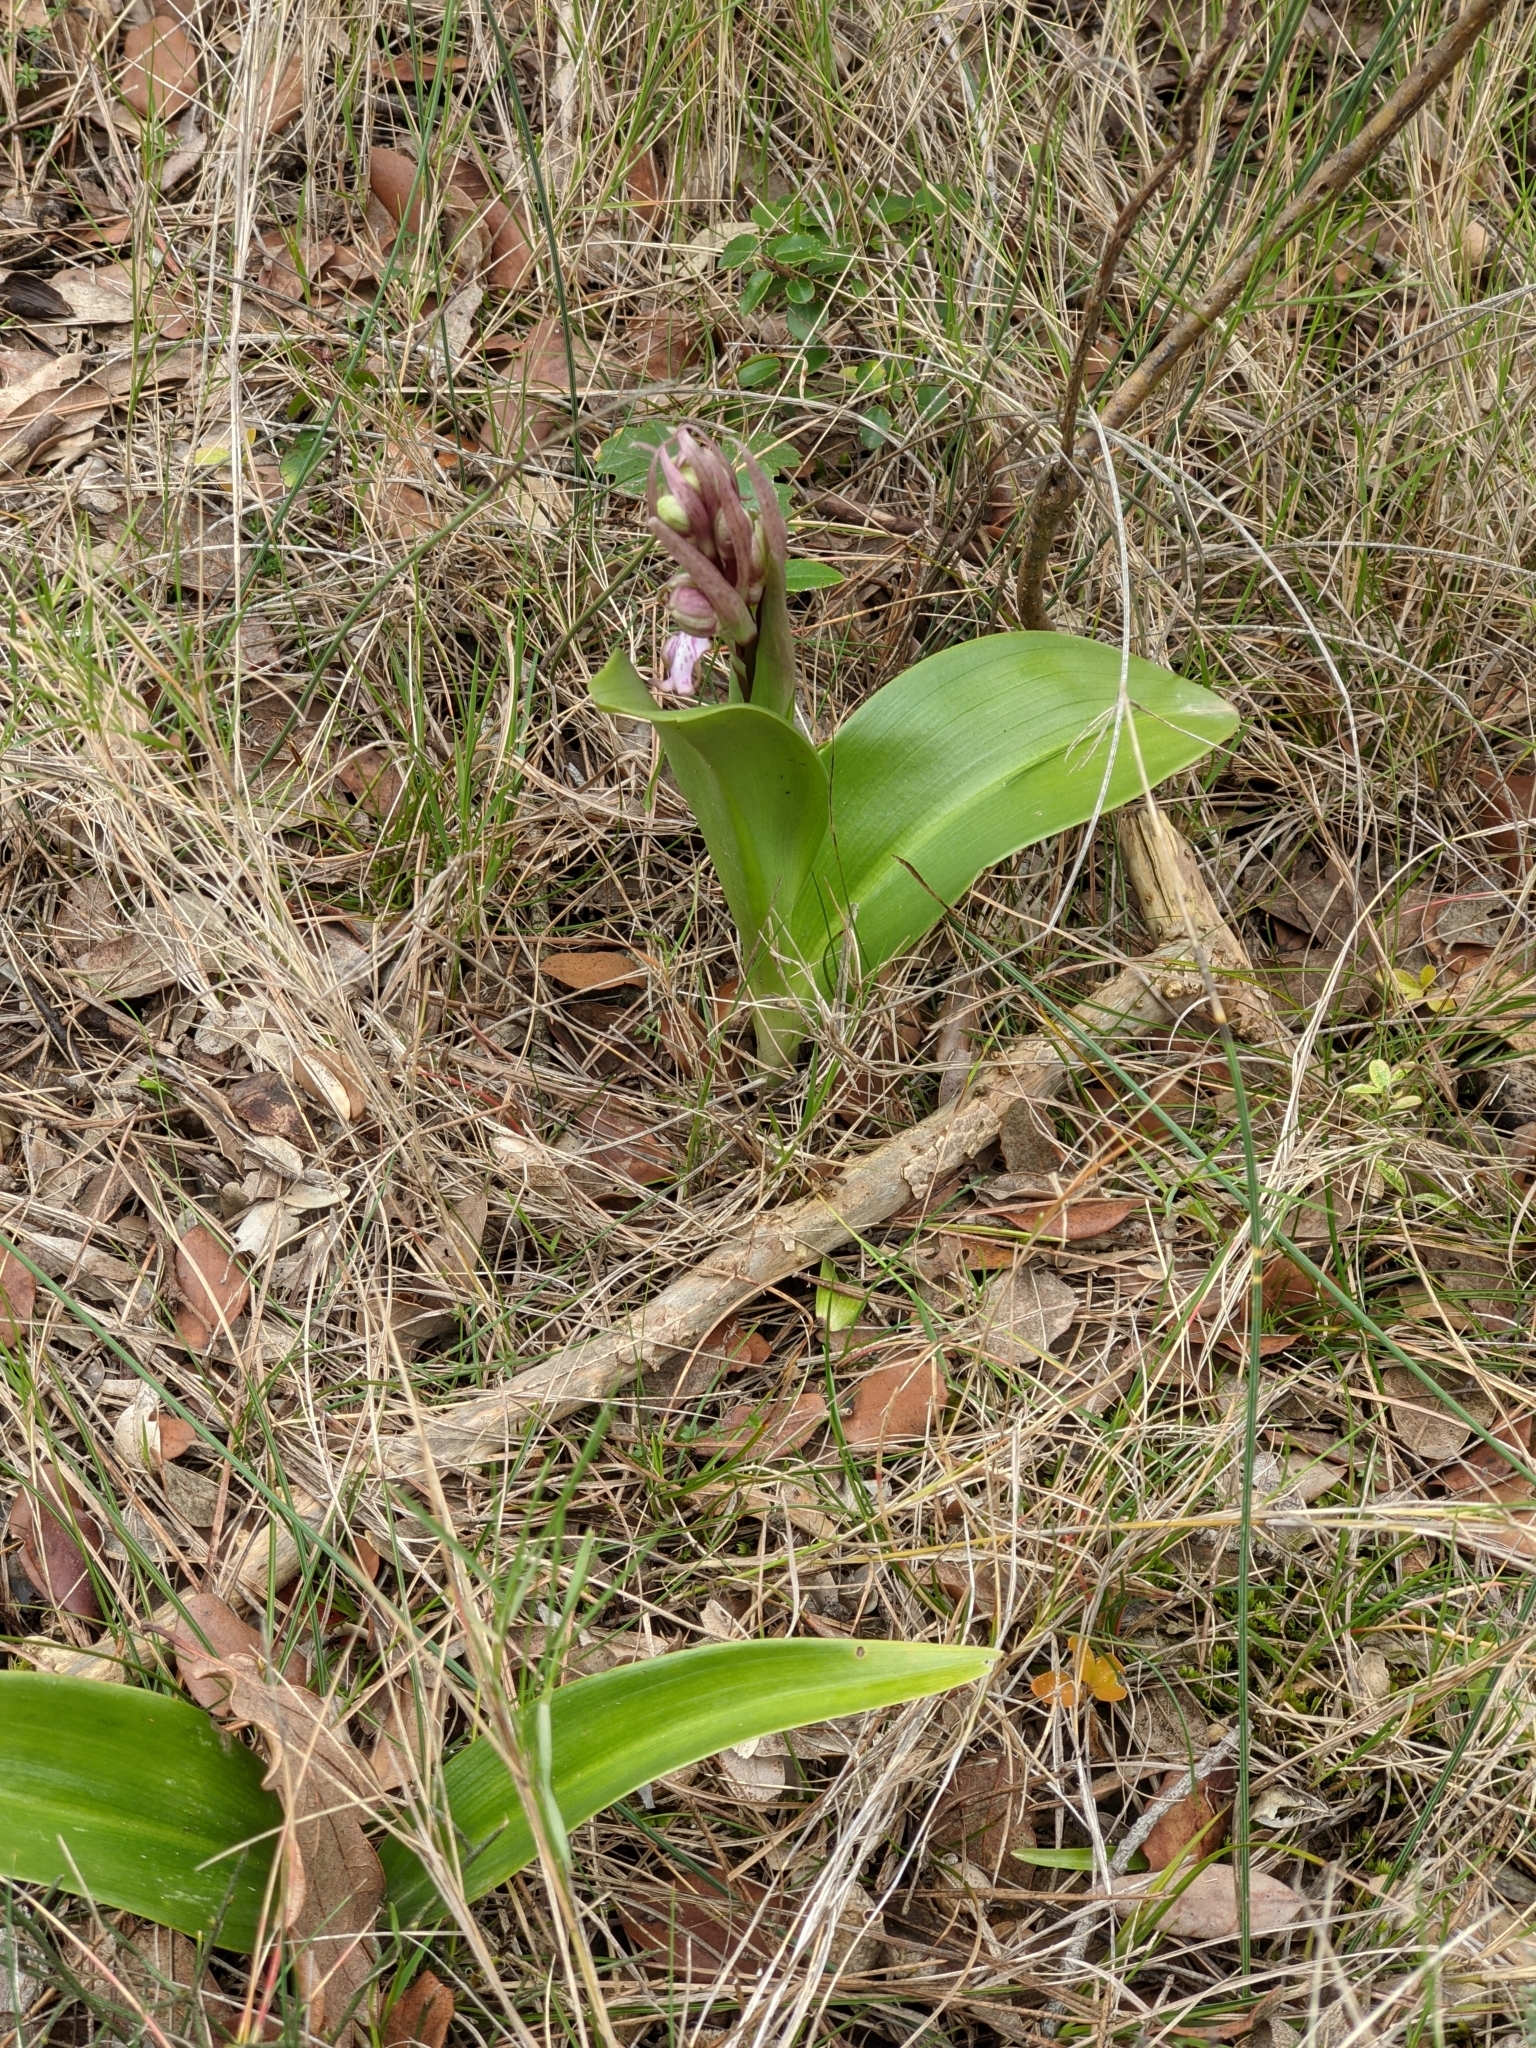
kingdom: Plantae
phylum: Tracheophyta
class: Liliopsida
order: Asparagales
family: Orchidaceae
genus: Himantoglossum
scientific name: Himantoglossum robertianum
